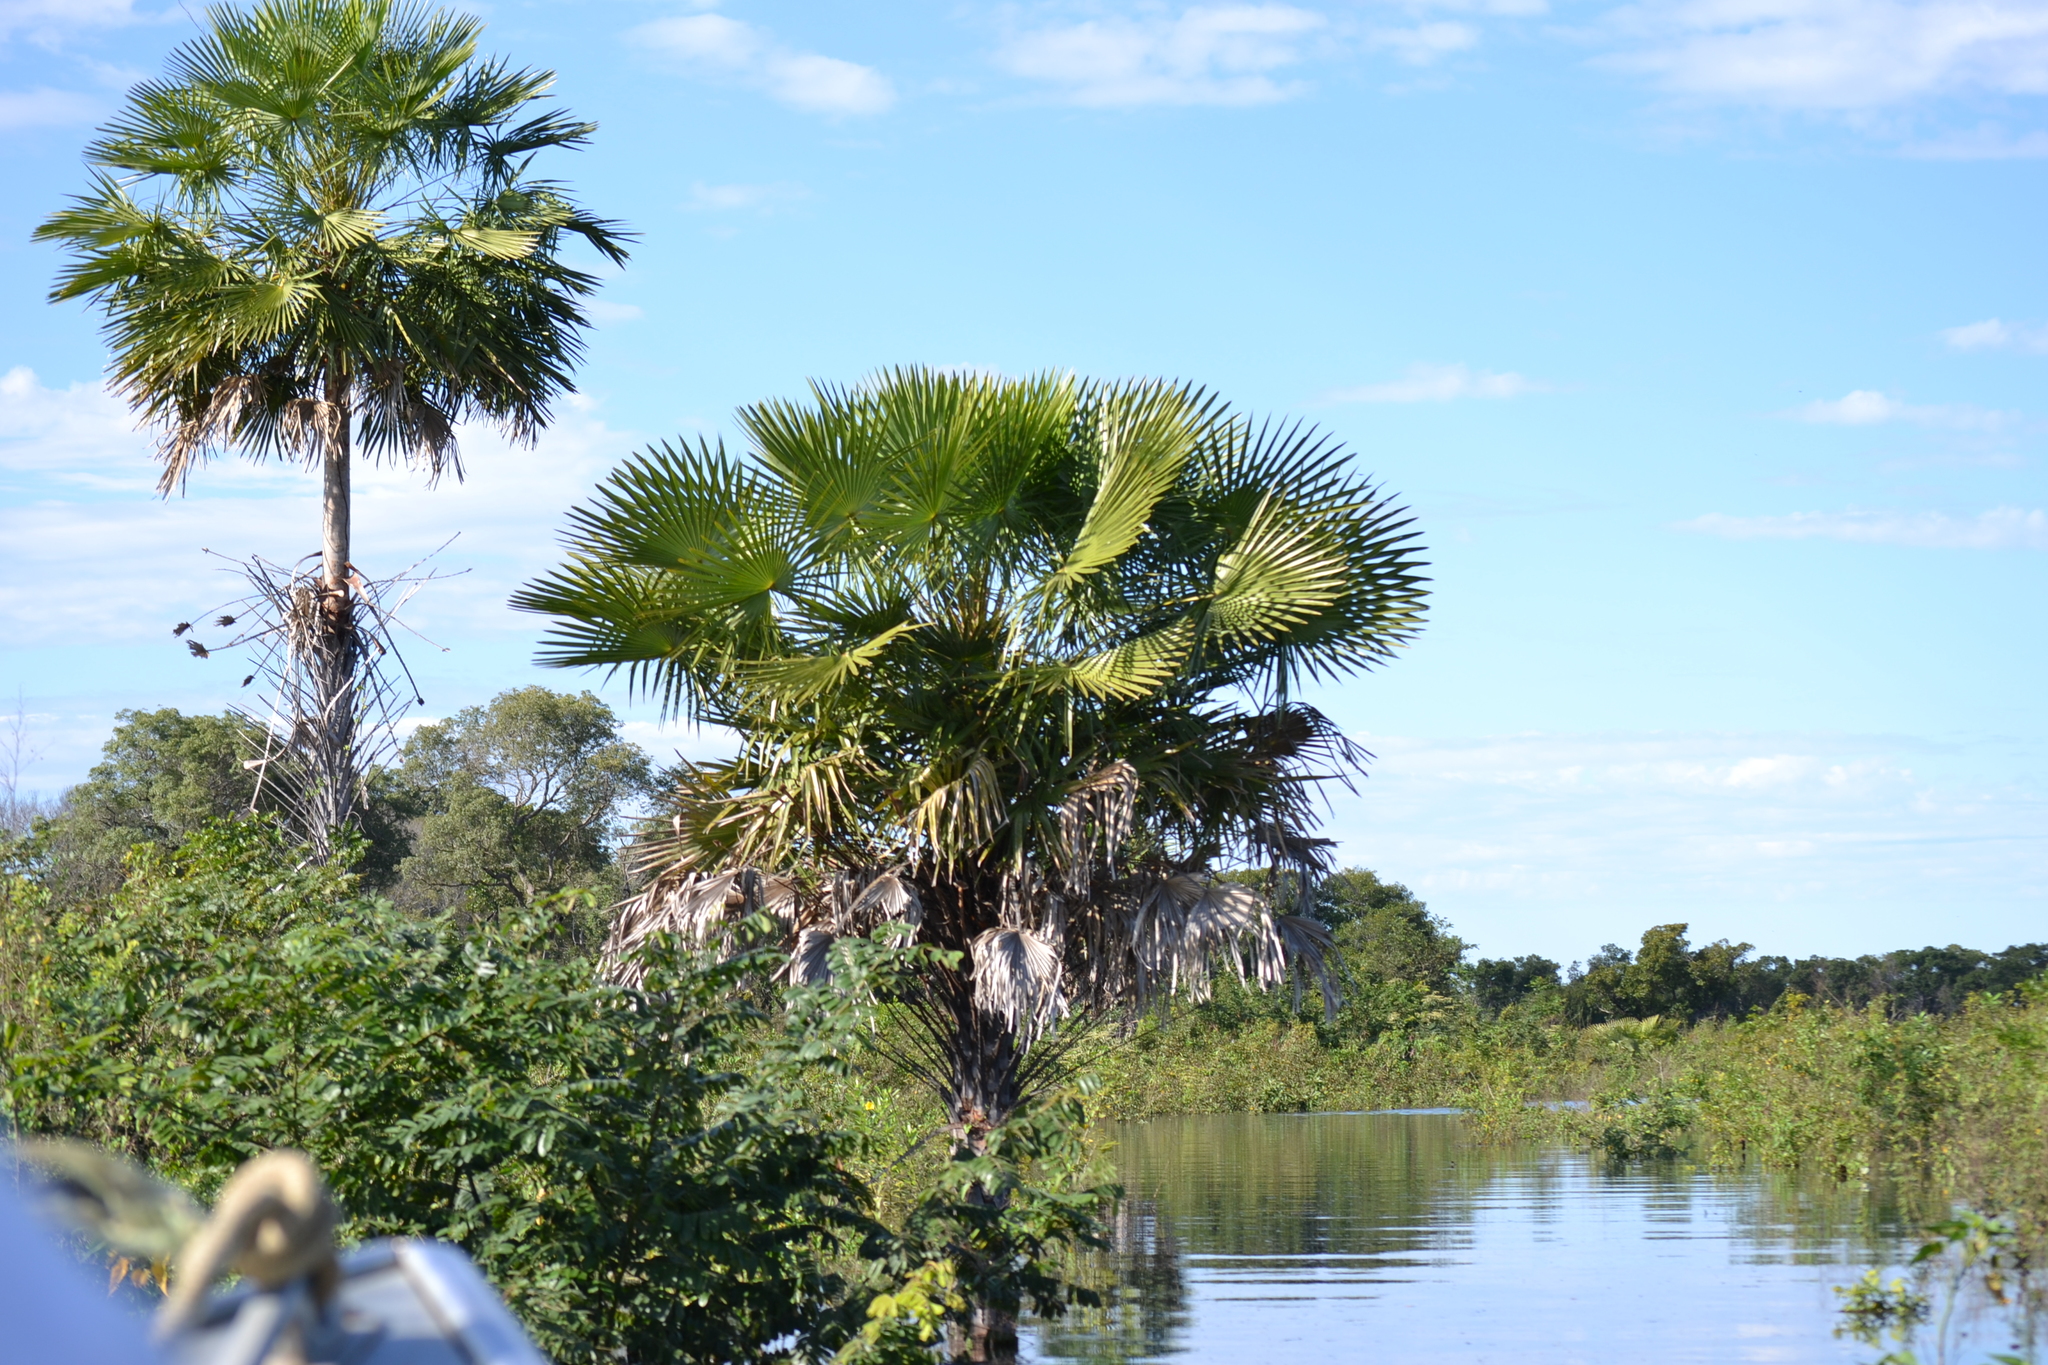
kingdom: Plantae
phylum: Tracheophyta
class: Liliopsida
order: Arecales
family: Arecaceae
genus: Copernicia
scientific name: Copernicia alba
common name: Caranday palm
